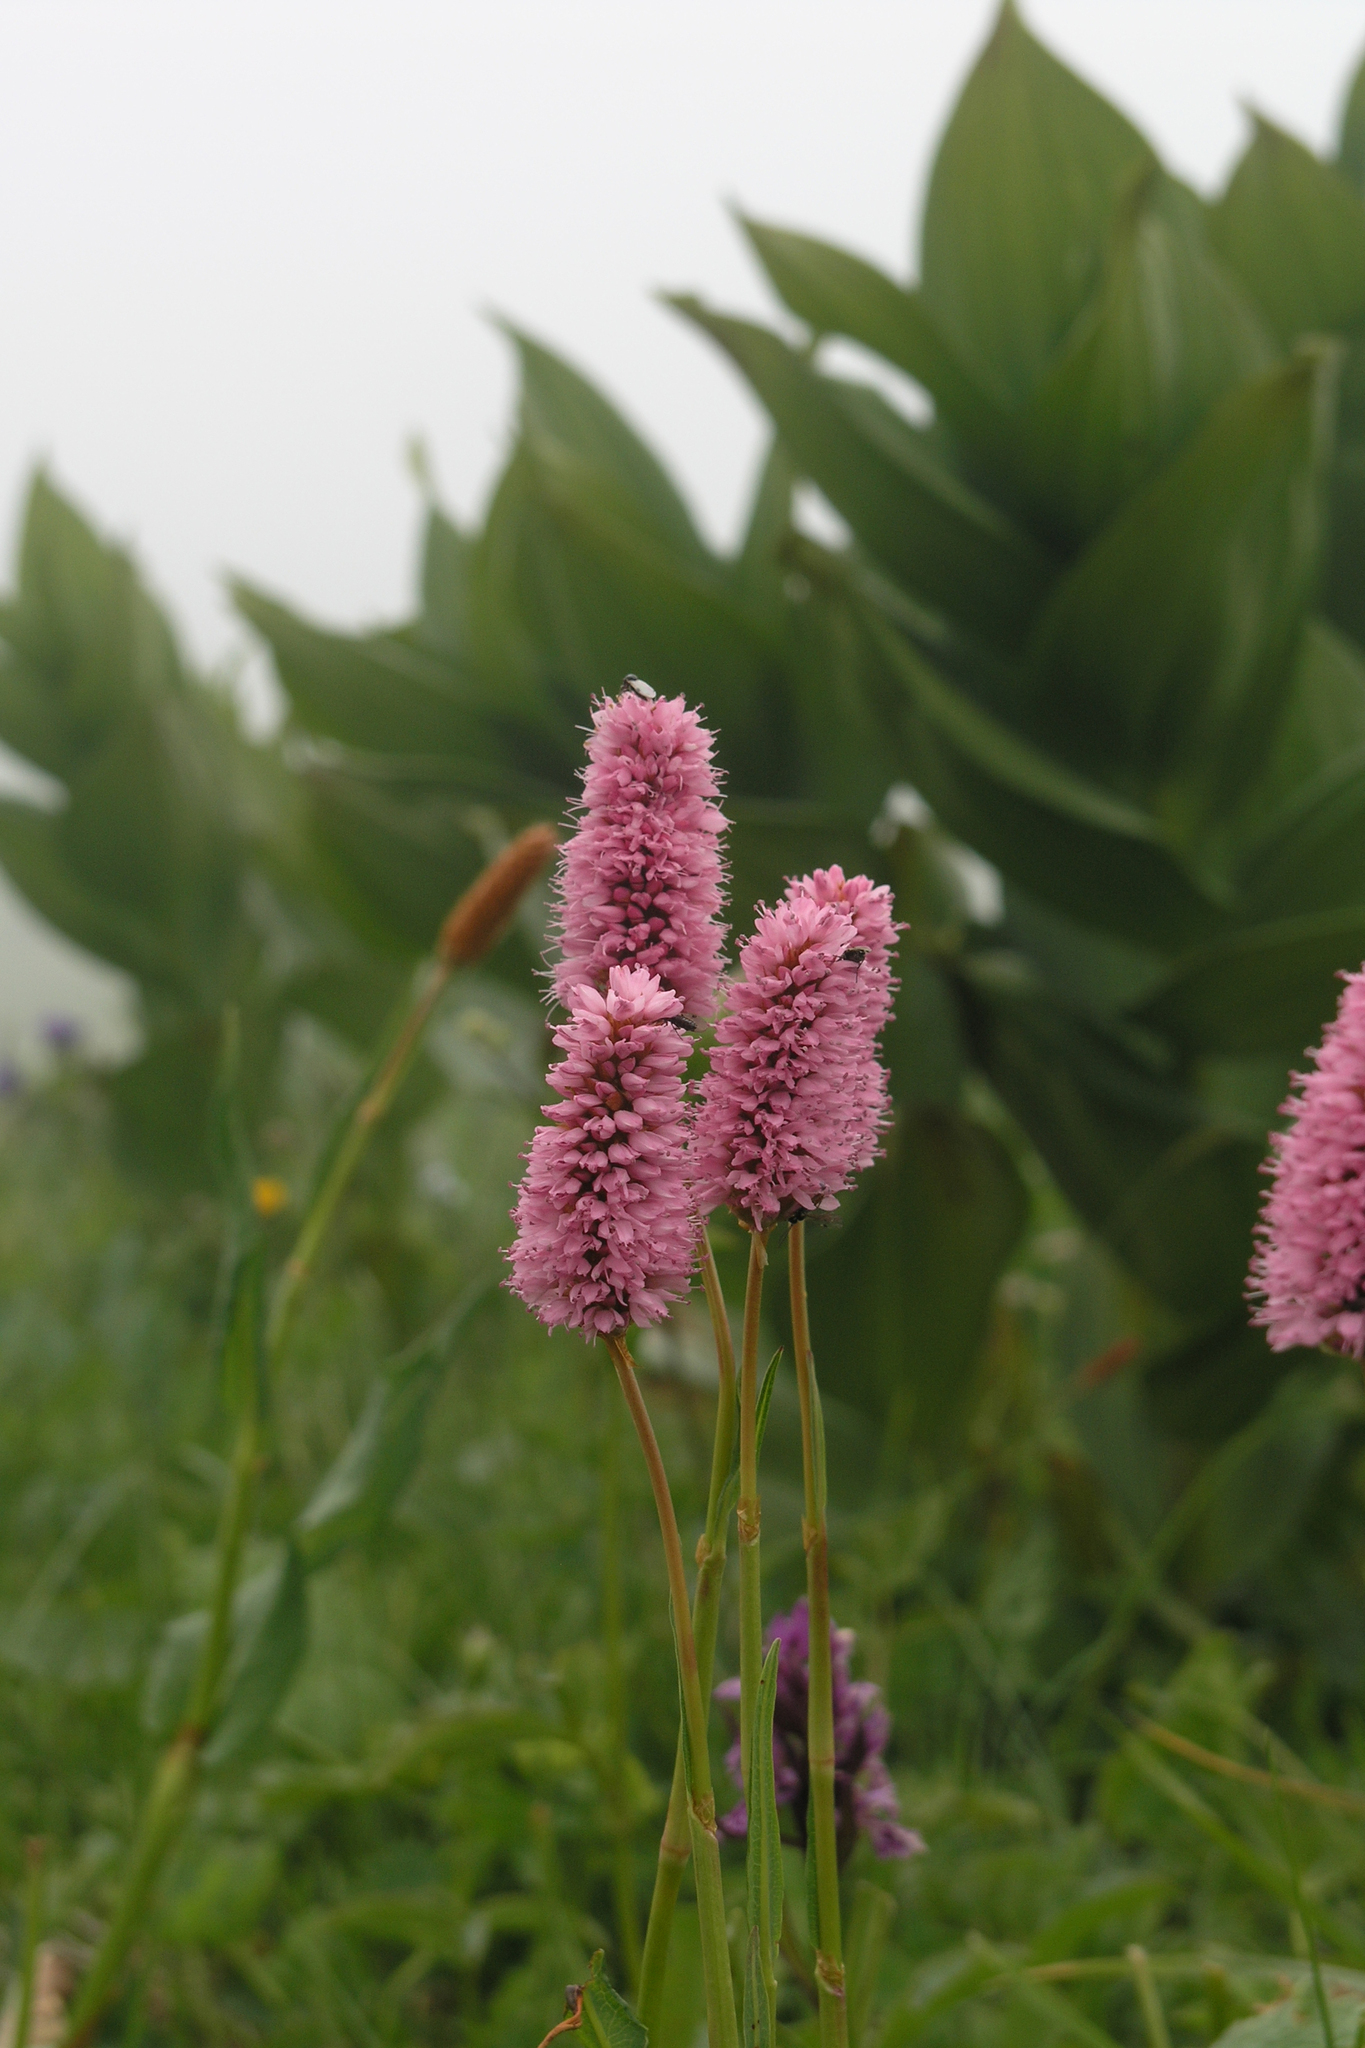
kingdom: Plantae
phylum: Tracheophyta
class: Magnoliopsida
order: Caryophyllales
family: Polygonaceae
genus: Bistorta
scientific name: Bistorta carnea
